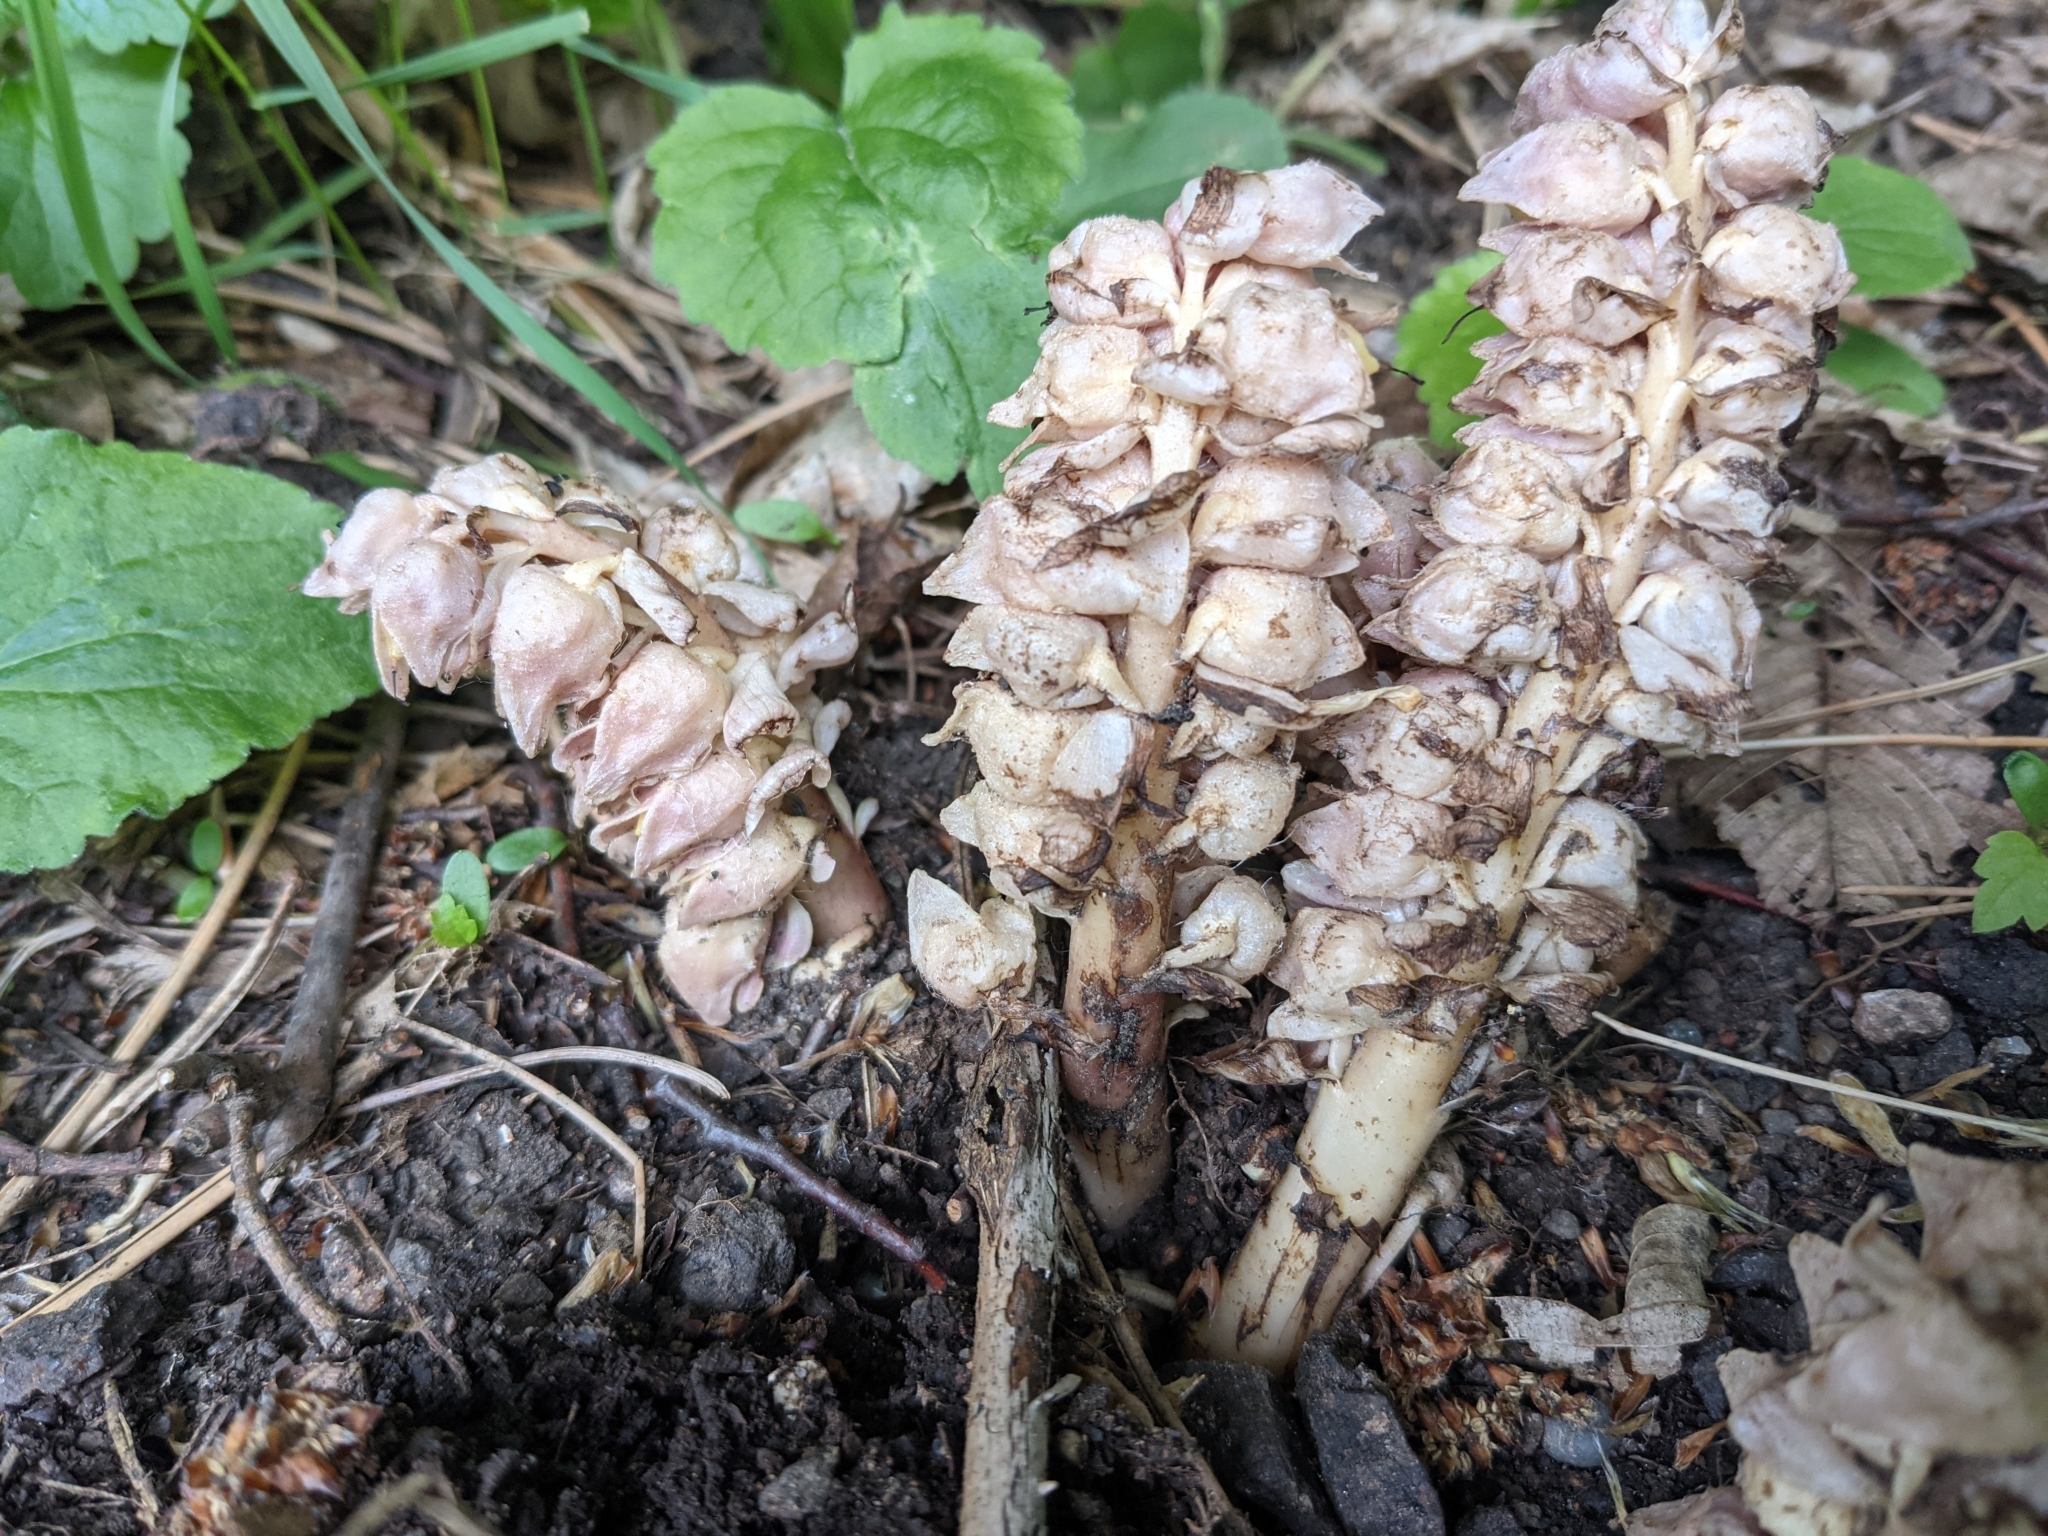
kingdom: Plantae
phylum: Tracheophyta
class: Magnoliopsida
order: Lamiales
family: Orobanchaceae
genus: Lathraea
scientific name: Lathraea squamaria
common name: Toothwort
